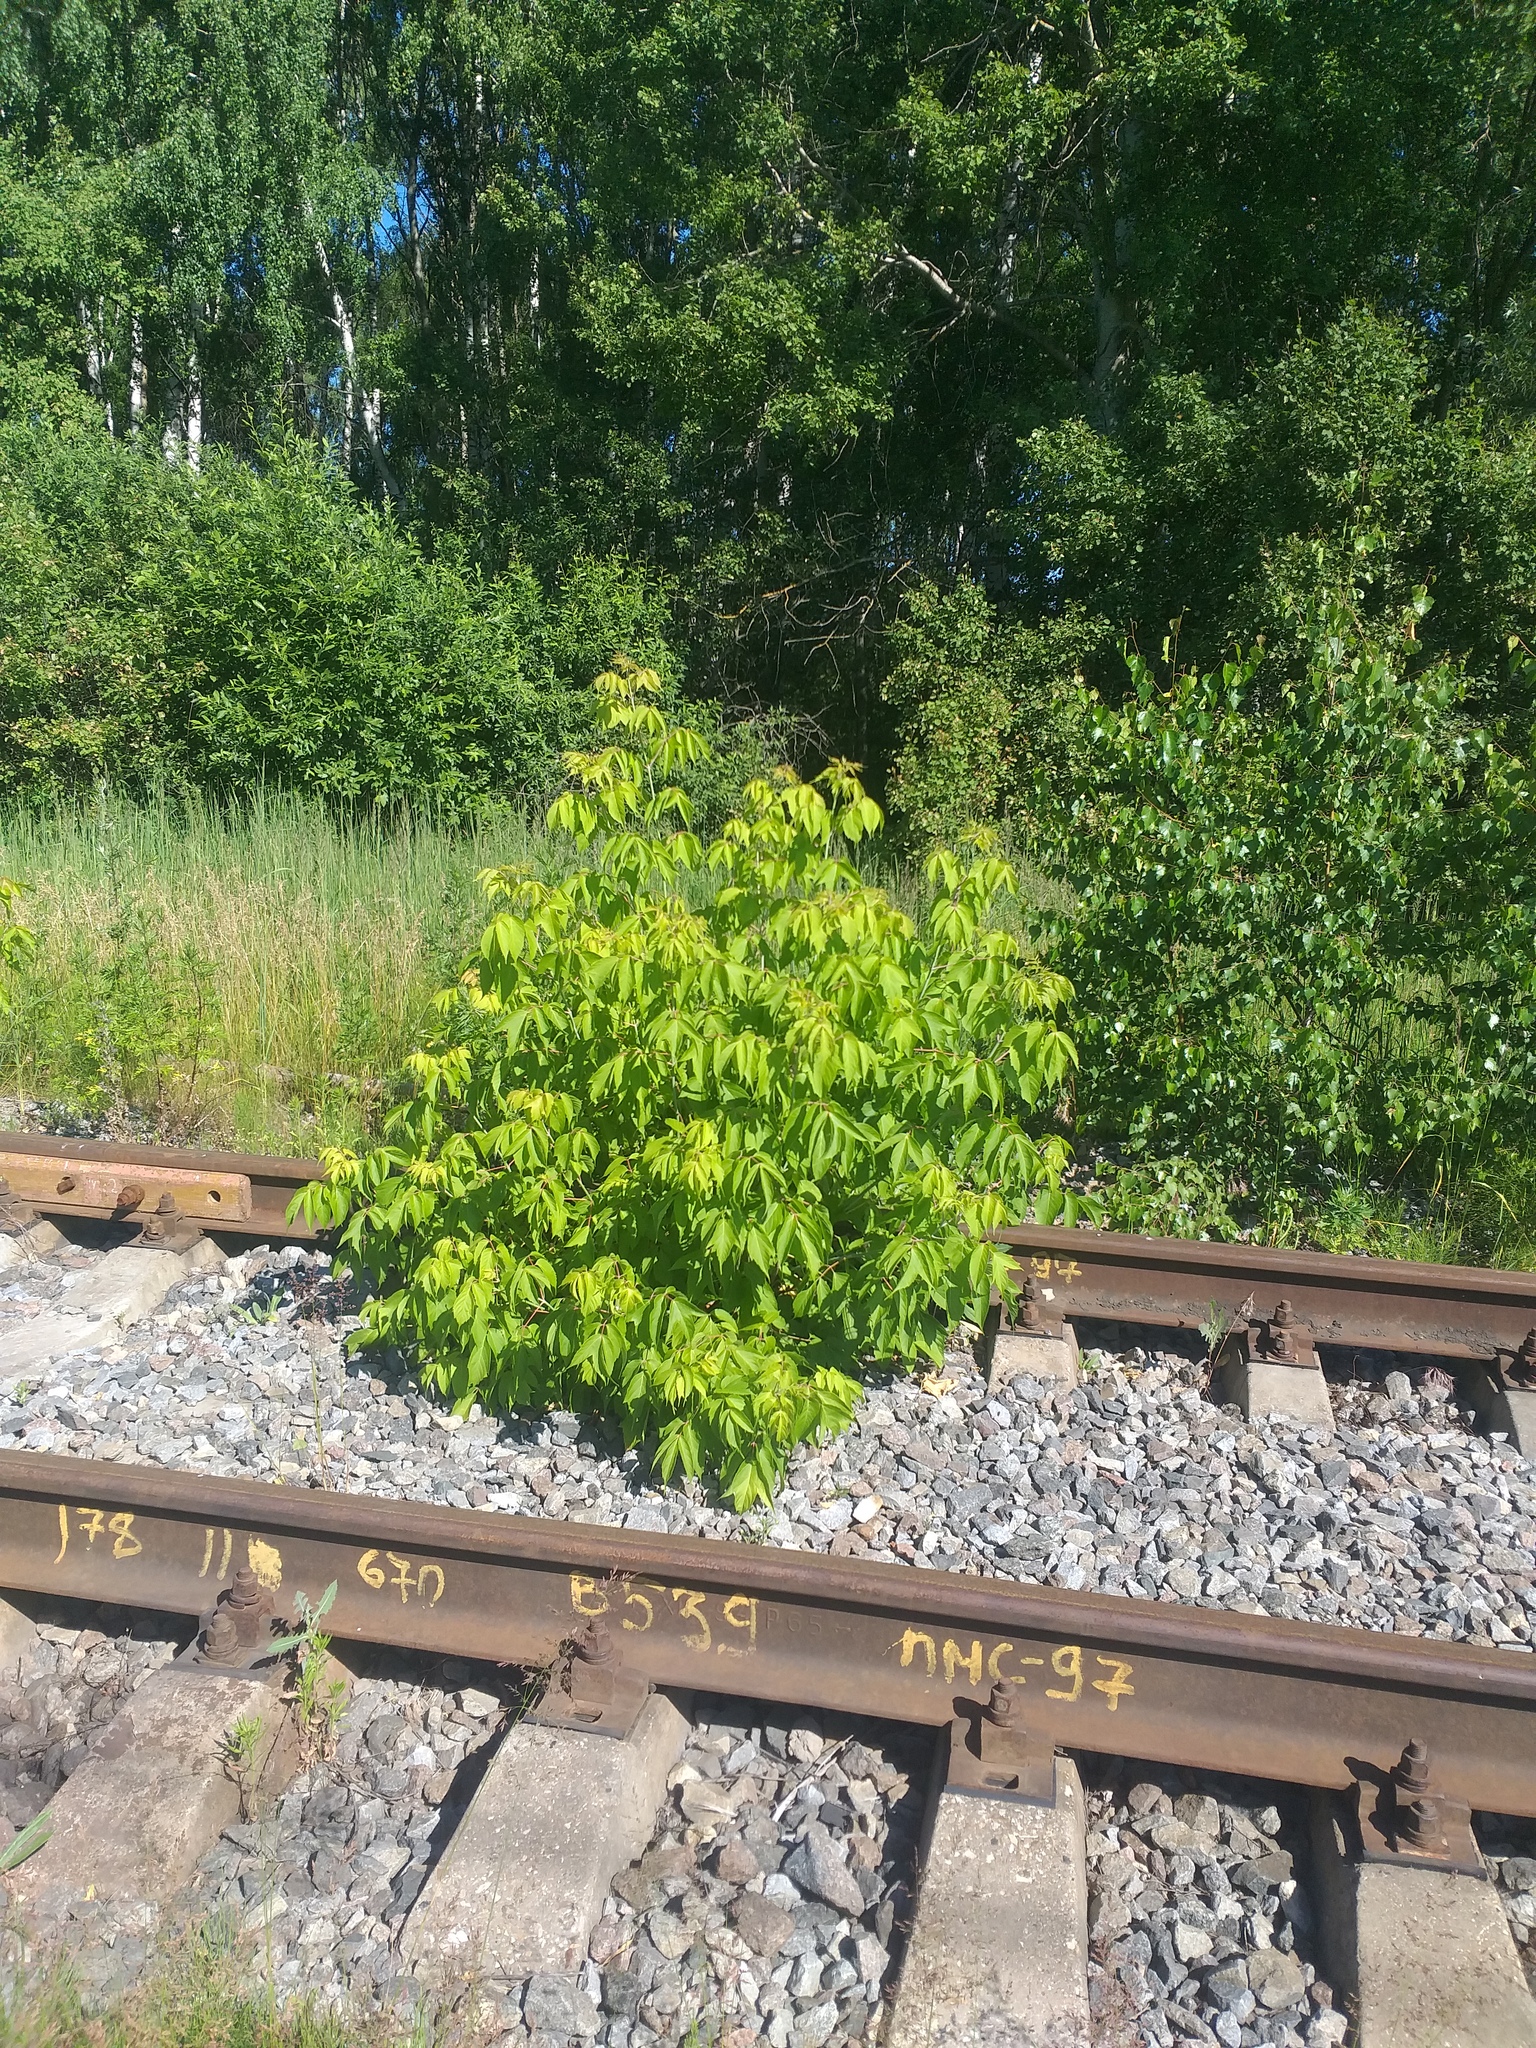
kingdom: Plantae
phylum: Tracheophyta
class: Magnoliopsida
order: Sapindales
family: Sapindaceae
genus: Acer
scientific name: Acer negundo
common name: Ashleaf maple
